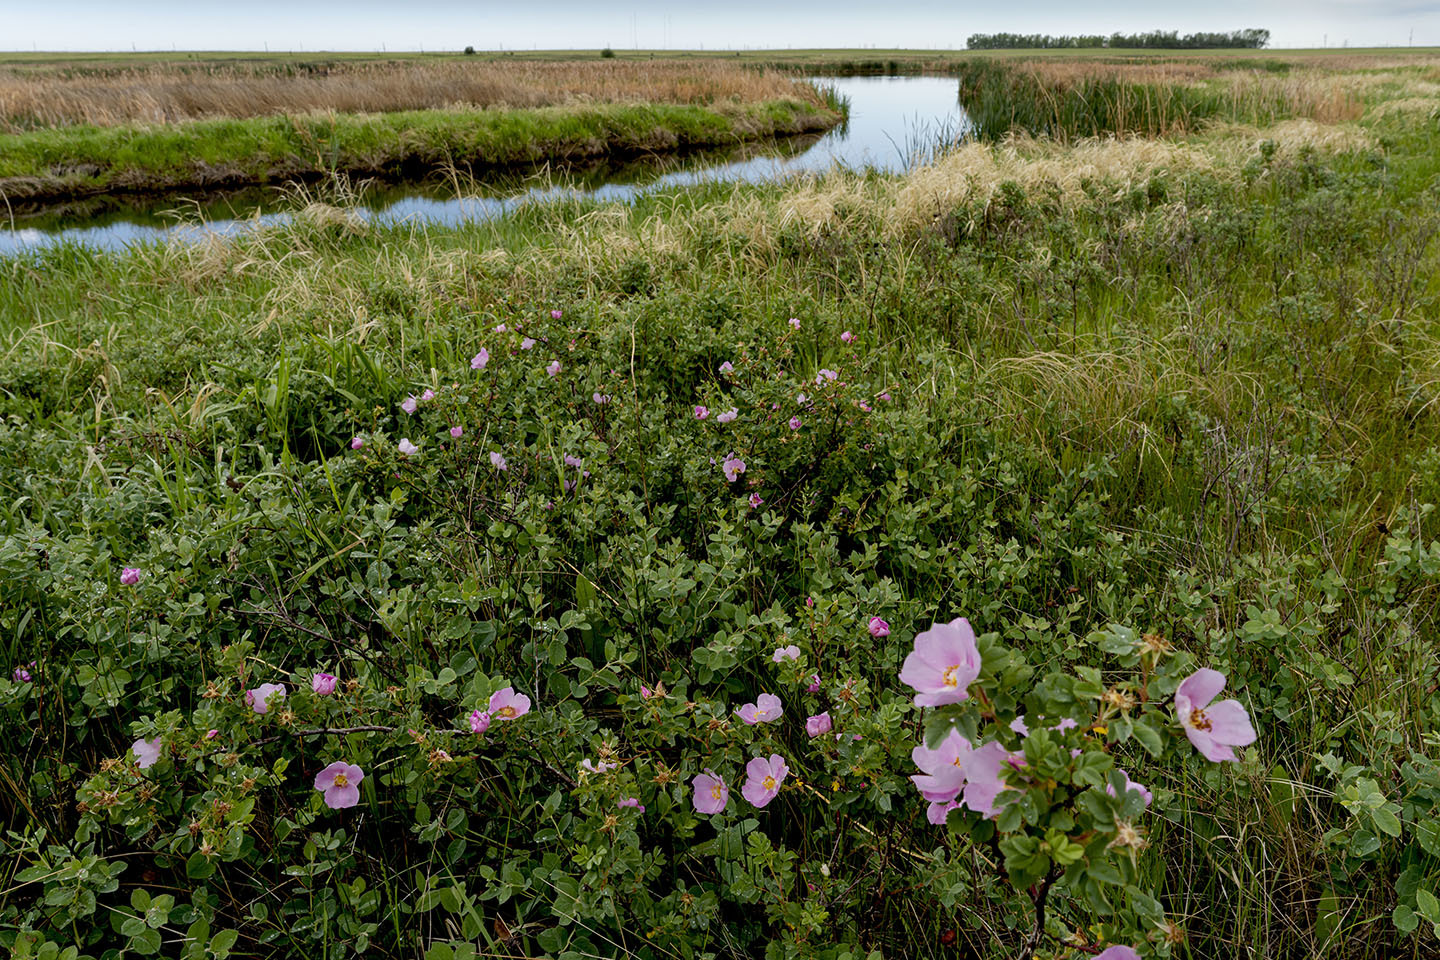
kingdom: Plantae
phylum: Tracheophyta
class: Magnoliopsida
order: Rosales
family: Rosaceae
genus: Rosa
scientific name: Rosa woodsii
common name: Woods's rose
